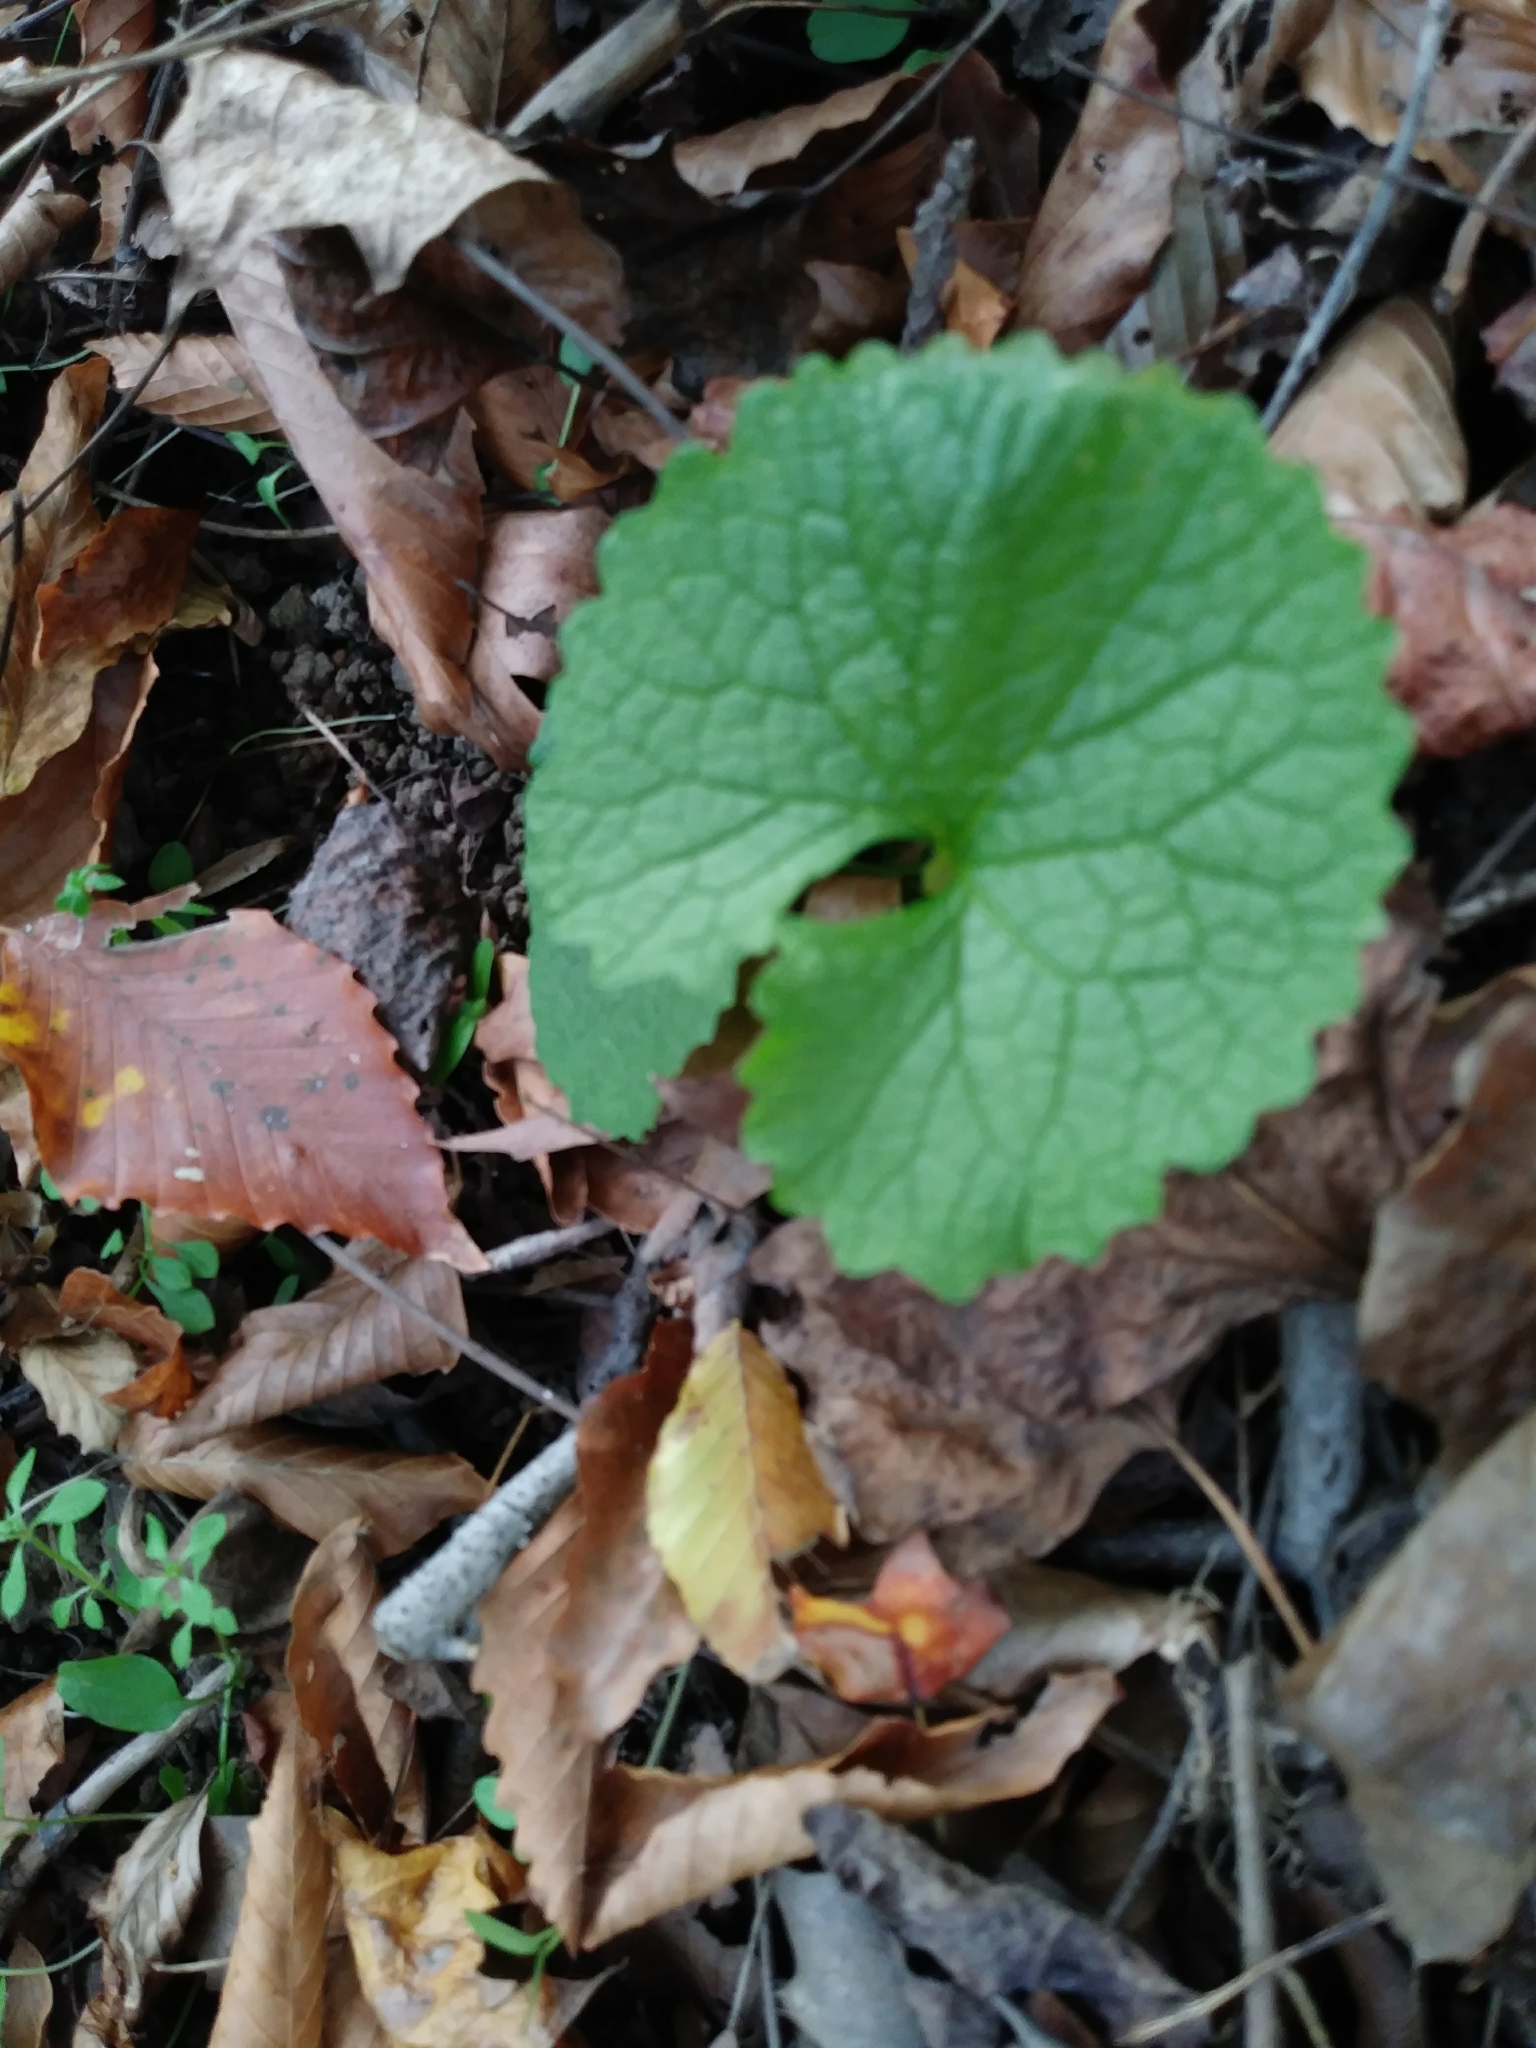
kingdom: Plantae
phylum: Tracheophyta
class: Magnoliopsida
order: Brassicales
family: Brassicaceae
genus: Alliaria
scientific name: Alliaria petiolata
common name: Garlic mustard
